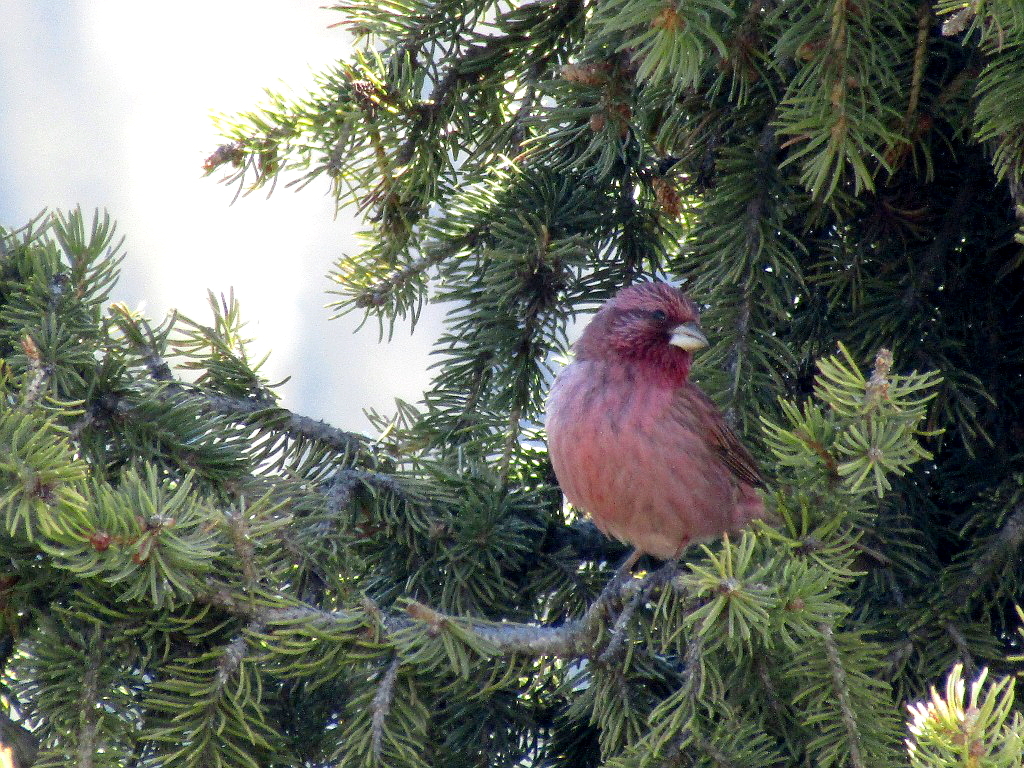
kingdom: Animalia
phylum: Chordata
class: Aves
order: Passeriformes
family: Fringillidae
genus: Carpodacus
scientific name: Carpodacus rhodochlamys
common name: Red-mantled rosefinch
